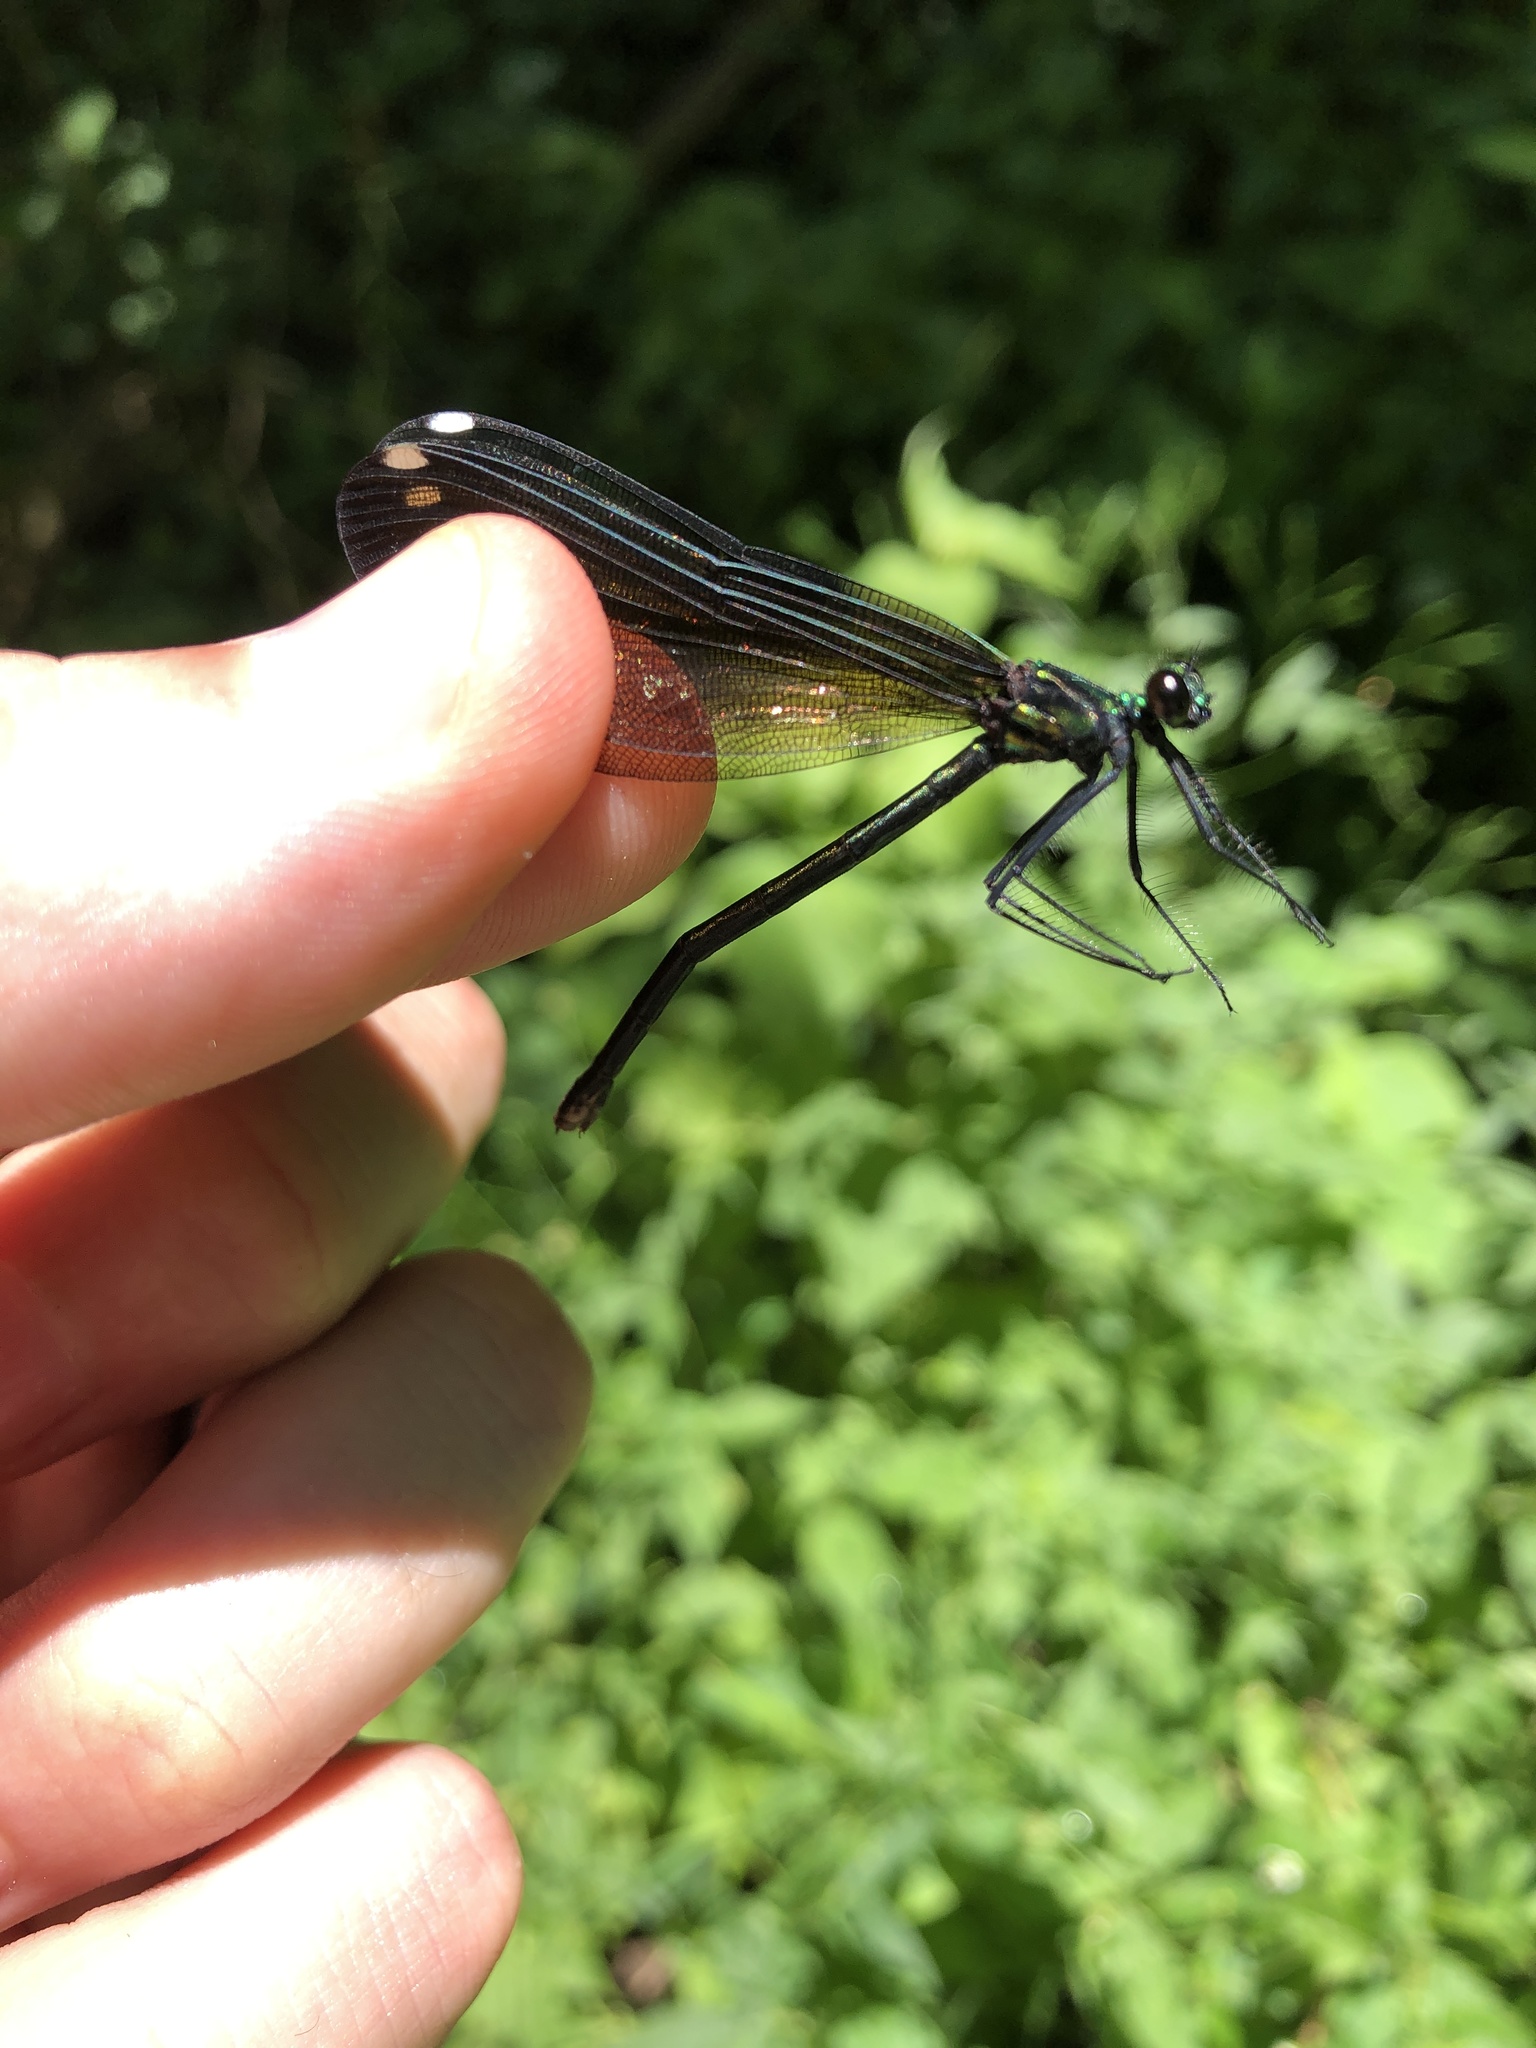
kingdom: Animalia
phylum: Arthropoda
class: Insecta
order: Odonata
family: Calopterygidae
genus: Calopteryx
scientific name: Calopteryx maculata
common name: Ebony jewelwing
